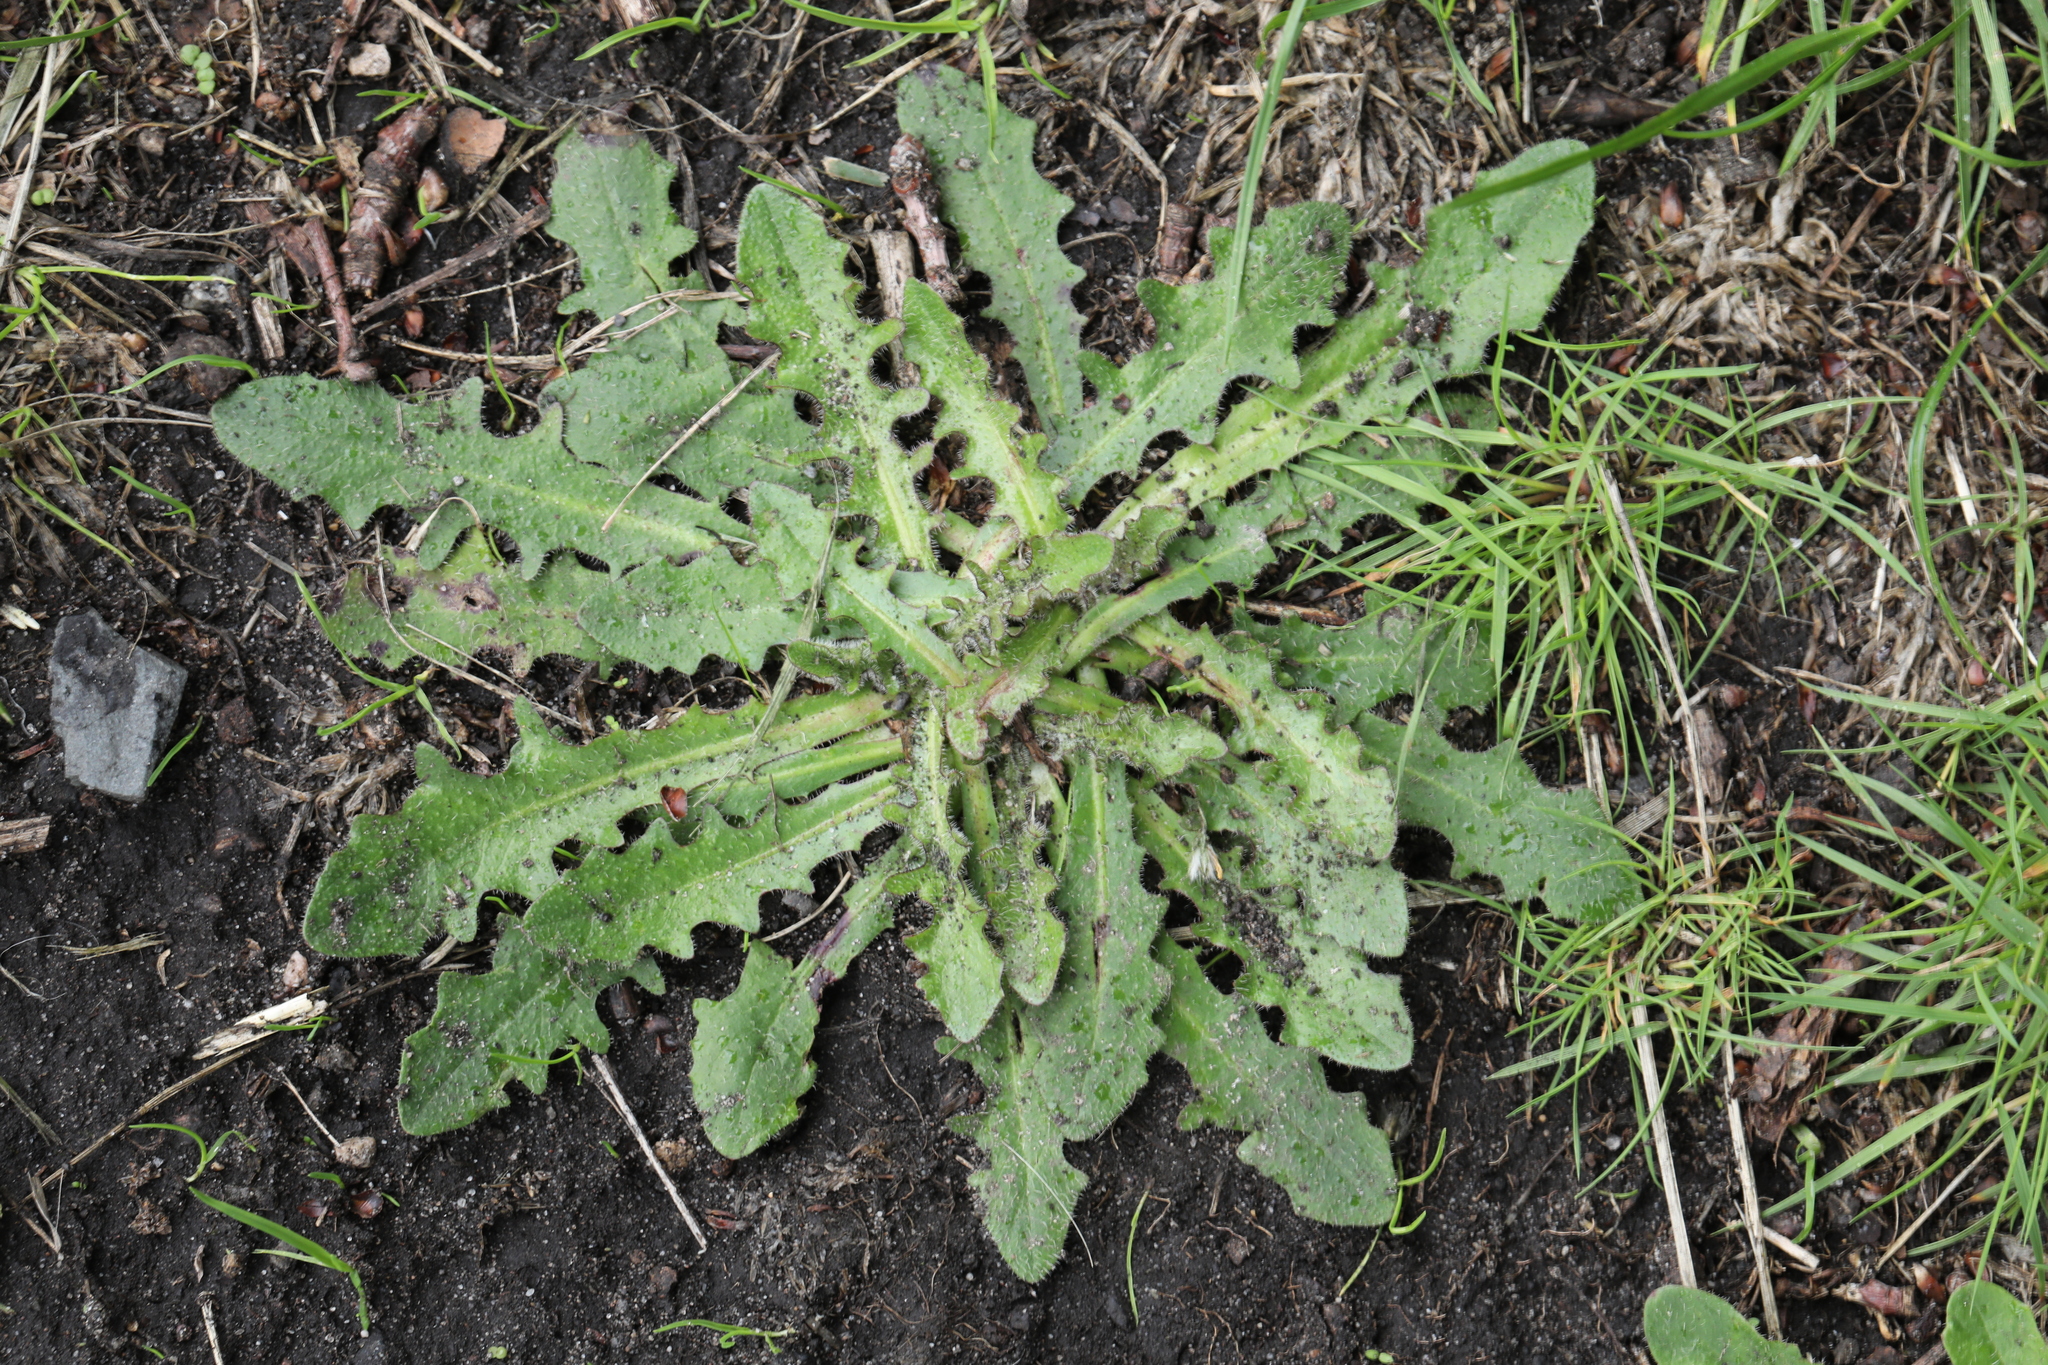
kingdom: Plantae
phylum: Tracheophyta
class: Magnoliopsida
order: Asterales
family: Asteraceae
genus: Hypochaeris
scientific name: Hypochaeris radicata
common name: Flatweed
